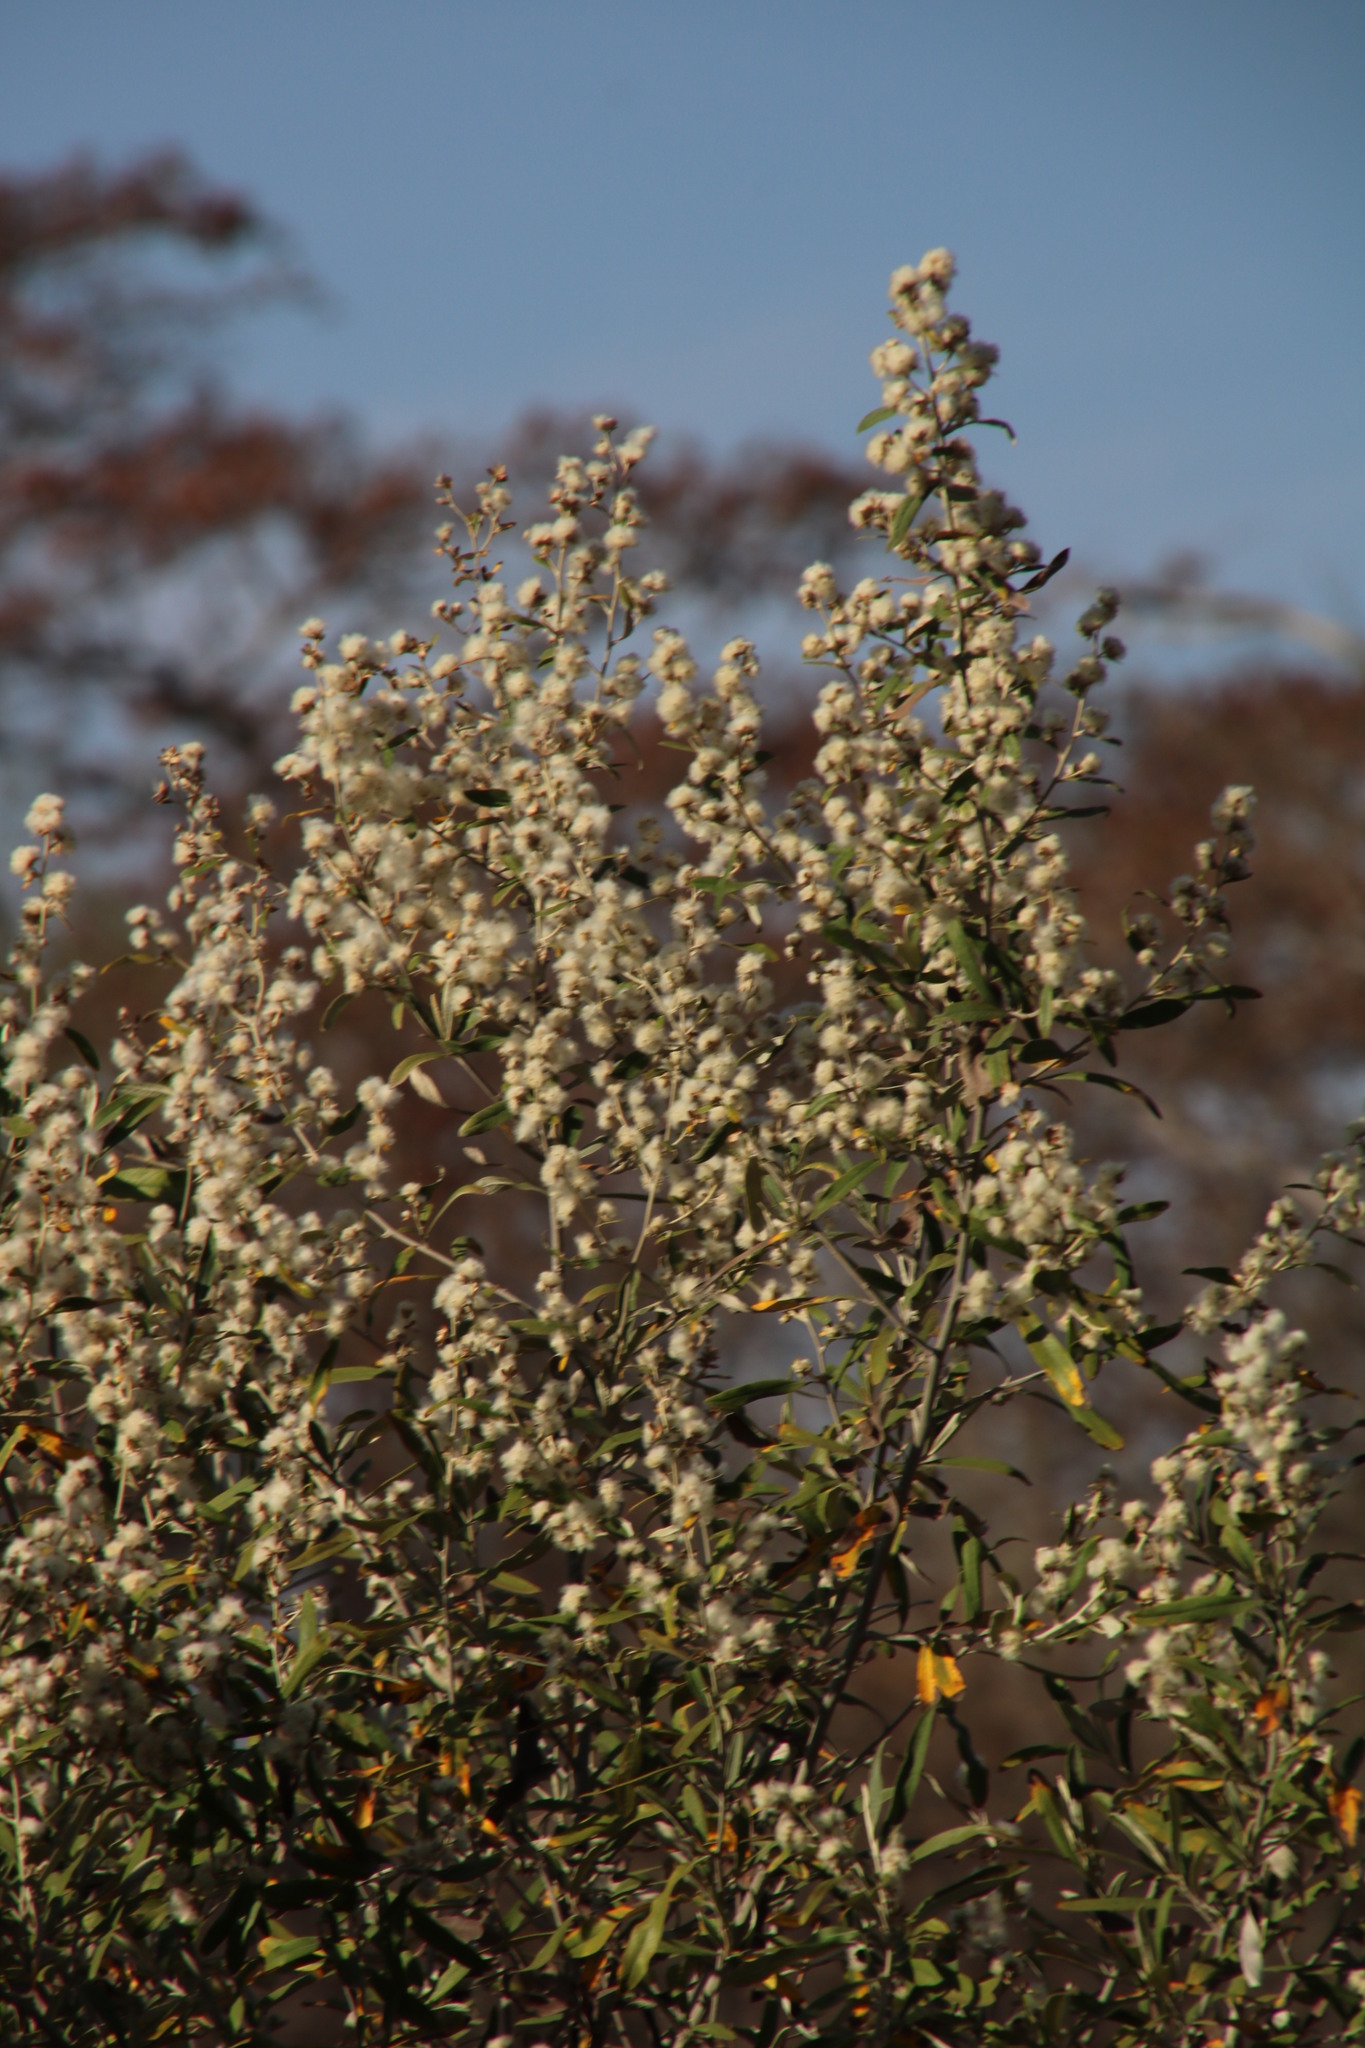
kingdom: Plantae
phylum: Tracheophyta
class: Magnoliopsida
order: Asterales
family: Asteraceae
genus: Tarchonanthus
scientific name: Tarchonanthus camphoratus
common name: Camphorwood
